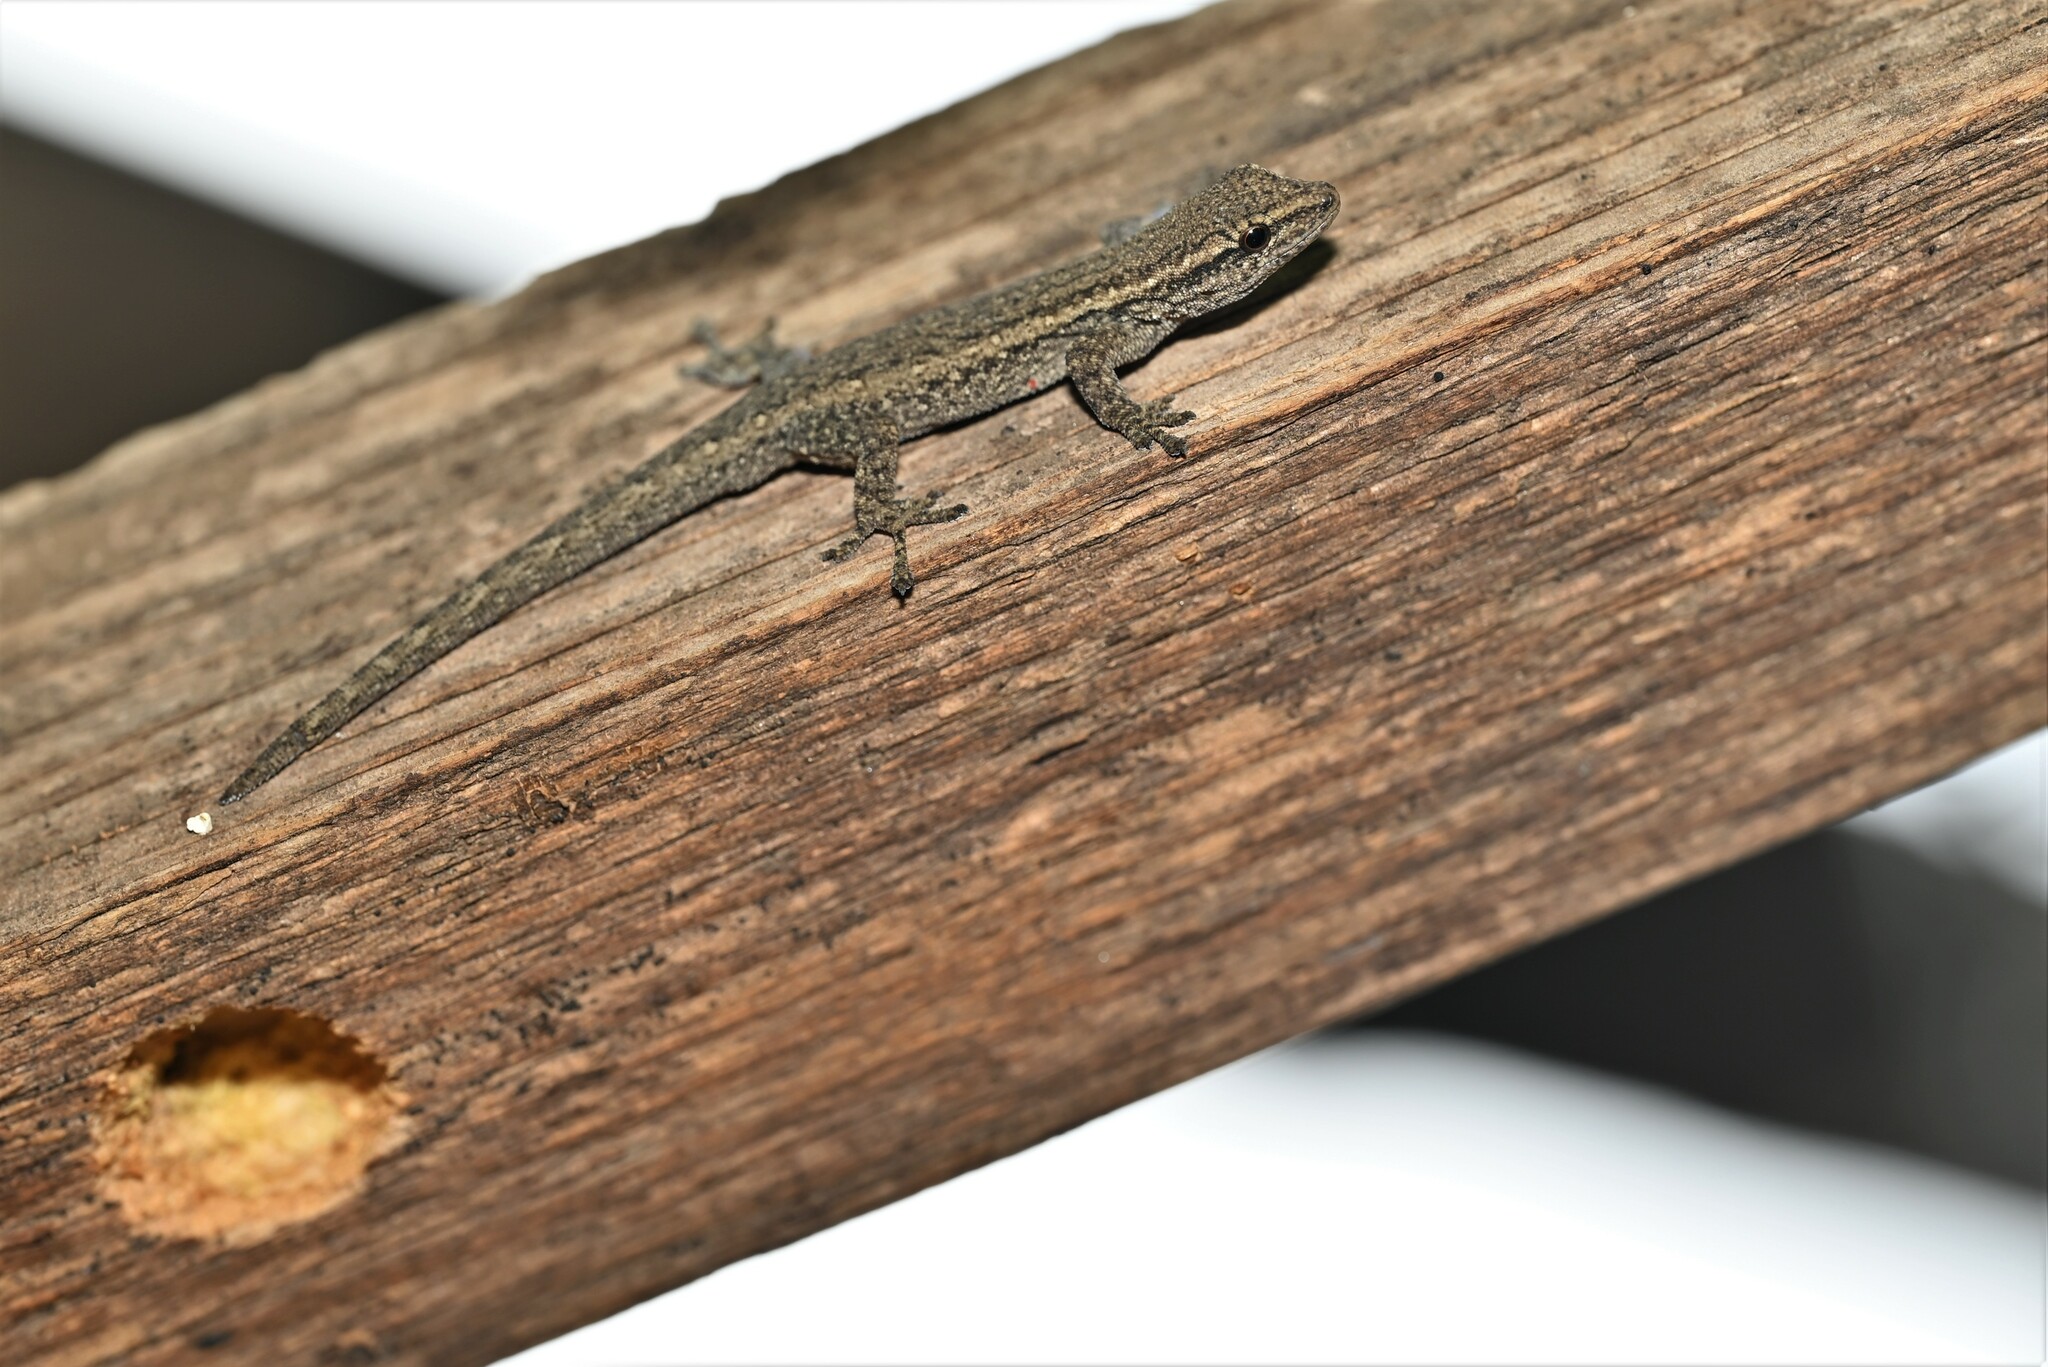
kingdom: Animalia
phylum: Chordata
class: Squamata
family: Gekkonidae
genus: Lygodactylus
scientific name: Lygodactylus capensis
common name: Cape dwarf gecko
